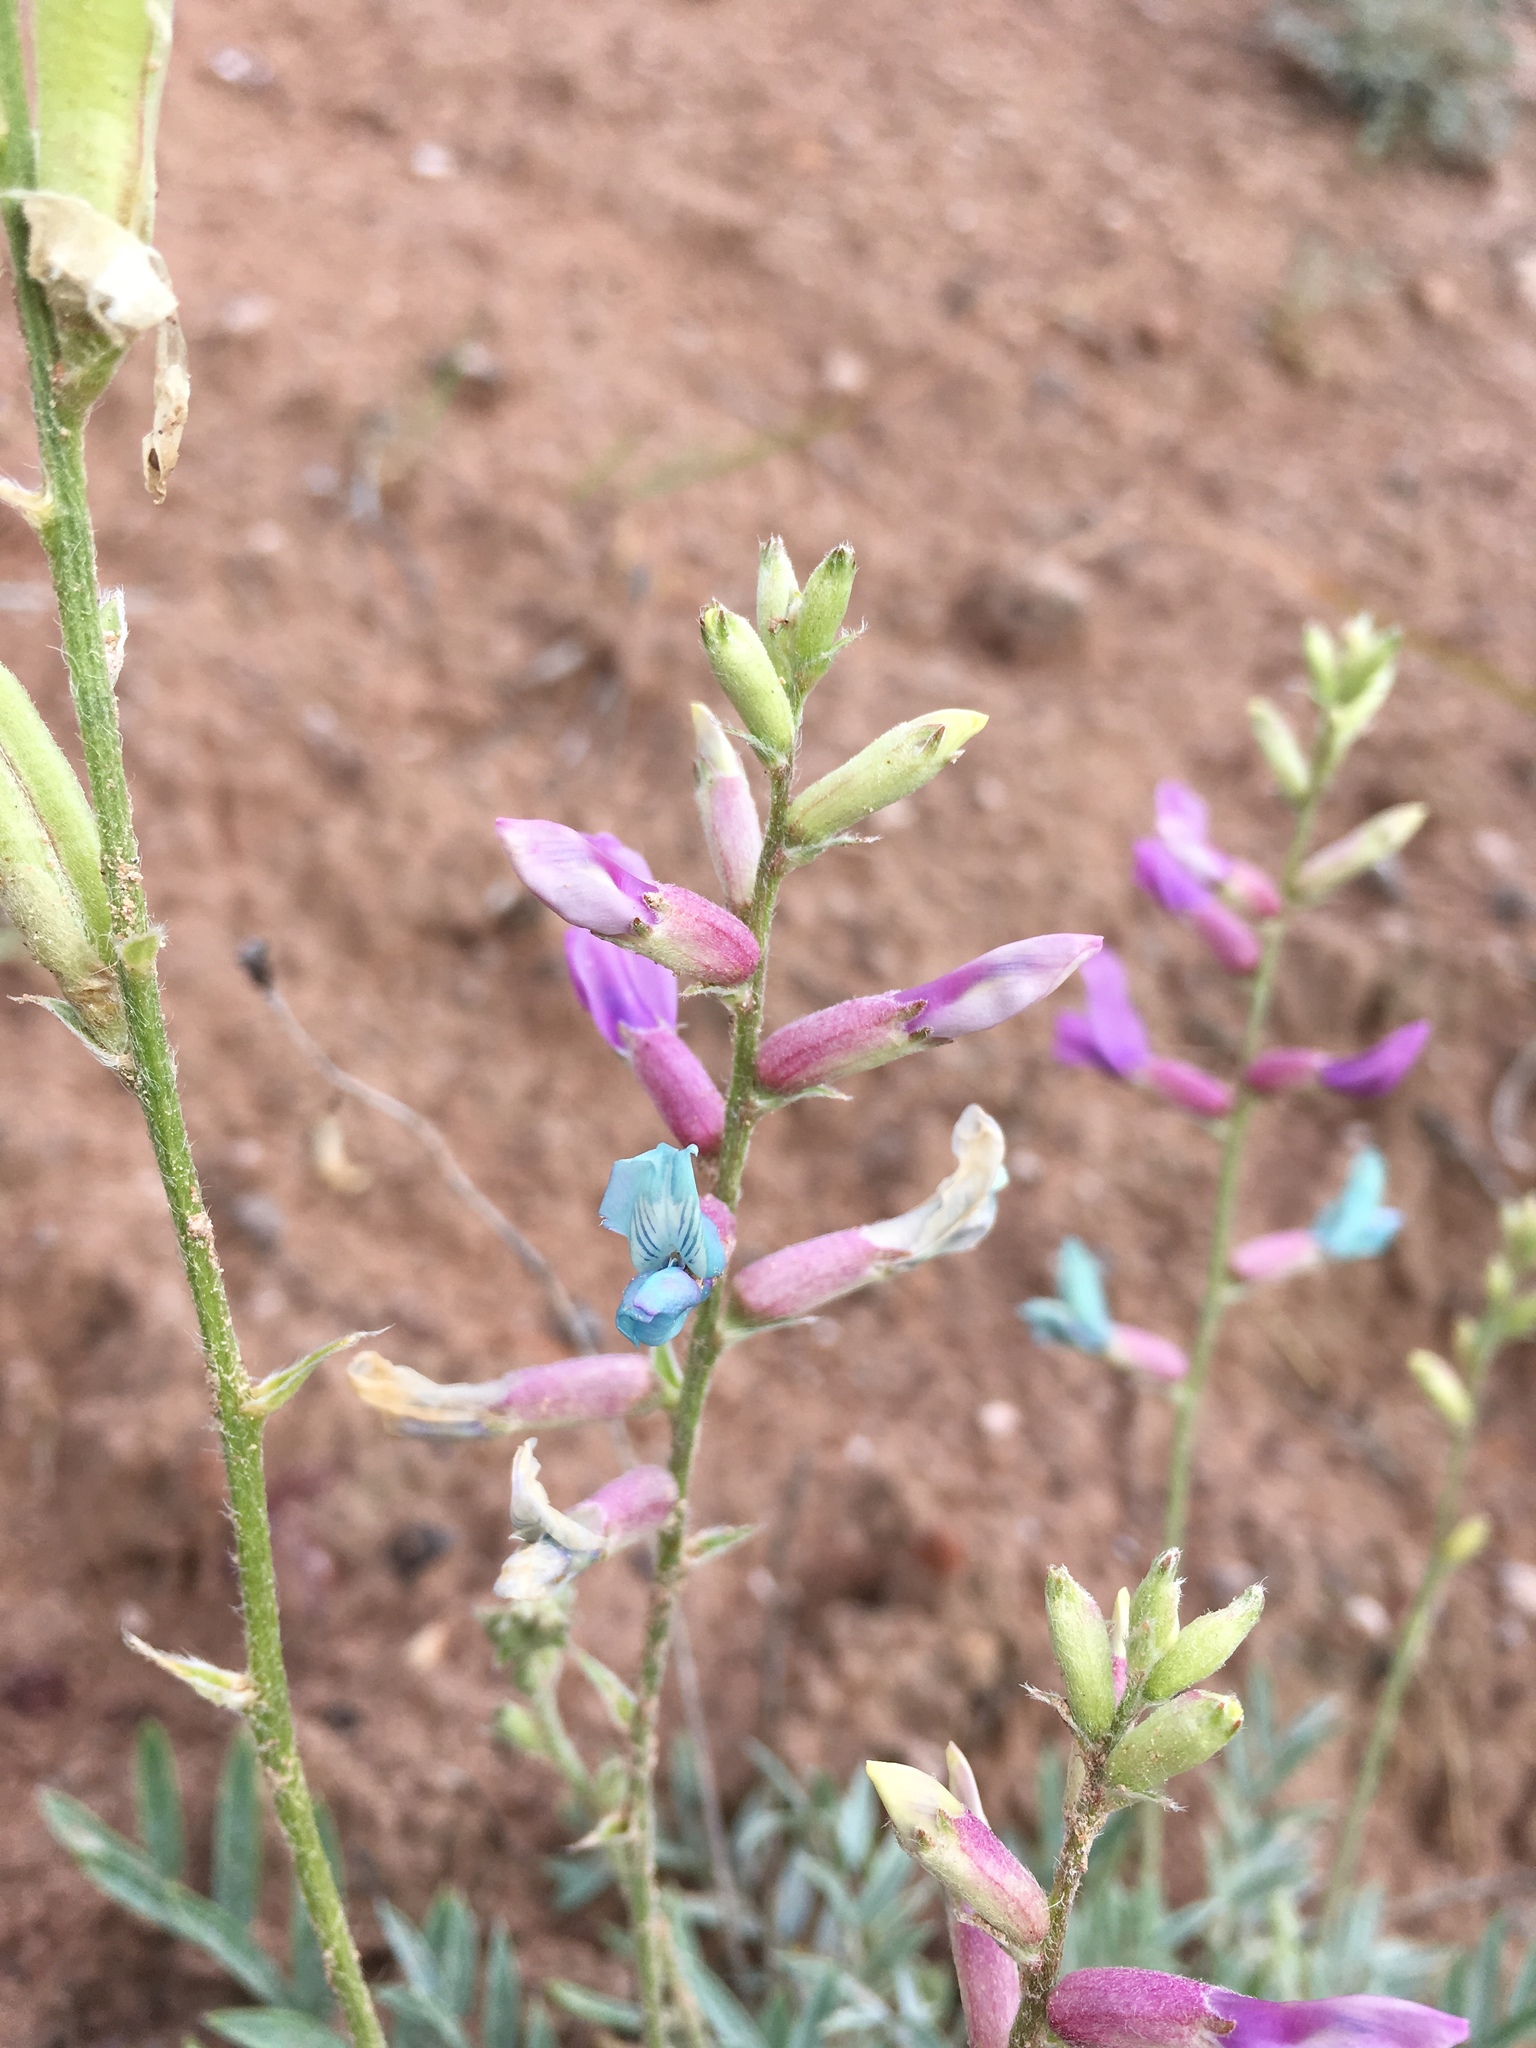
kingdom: Plantae
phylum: Tracheophyta
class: Magnoliopsida
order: Fabales
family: Fabaceae
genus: Oxytropis
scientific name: Oxytropis lambertii
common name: Purple locoweed
